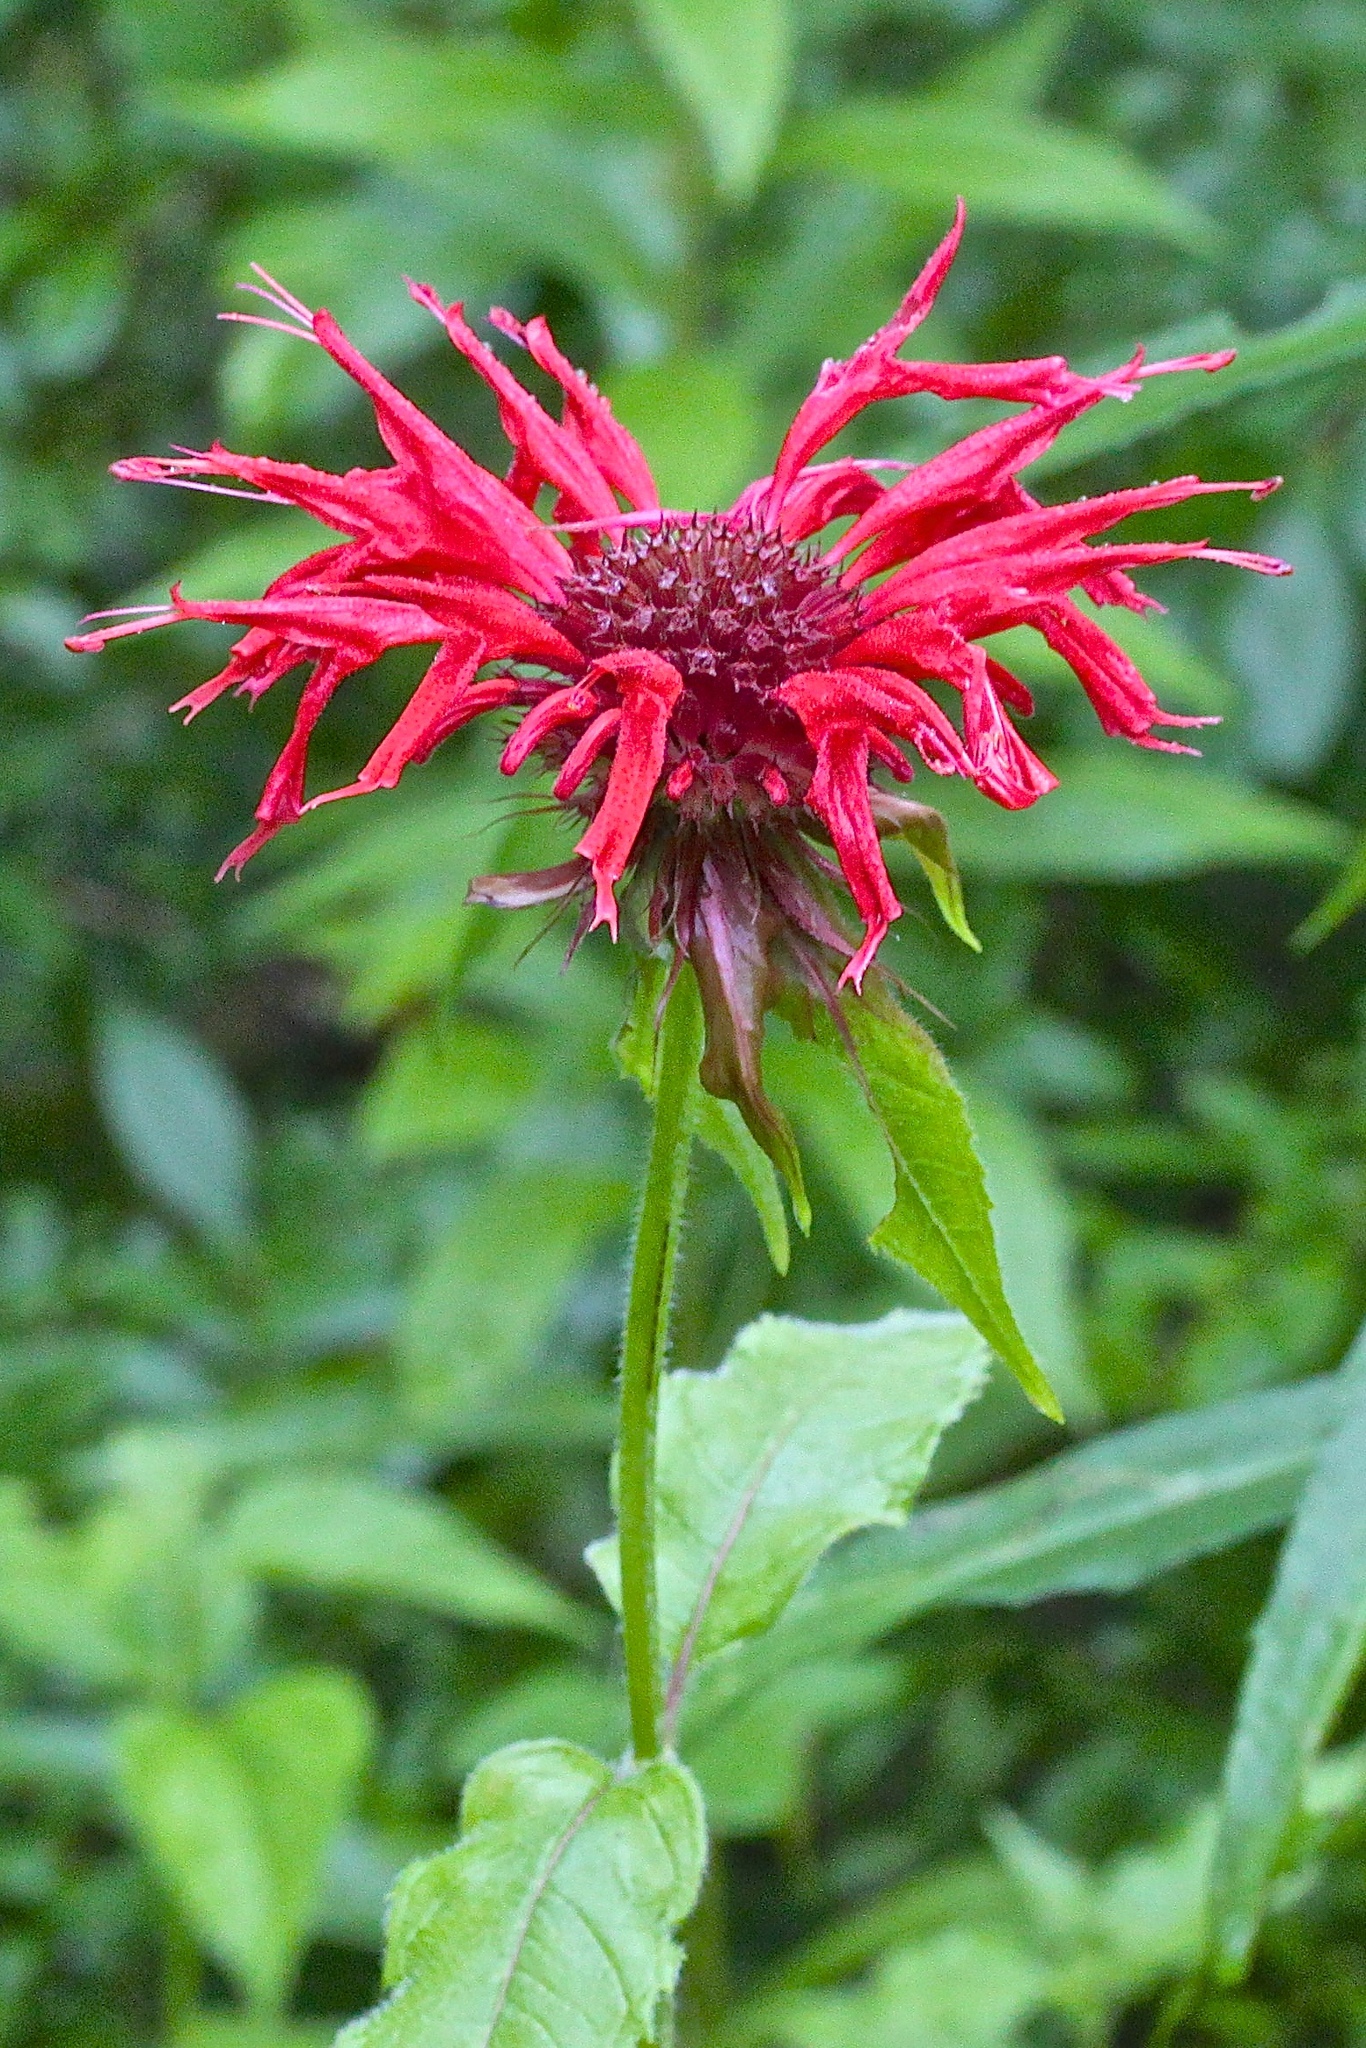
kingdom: Plantae
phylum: Tracheophyta
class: Magnoliopsida
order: Lamiales
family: Lamiaceae
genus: Monarda
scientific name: Monarda didyma
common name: Beebalm
